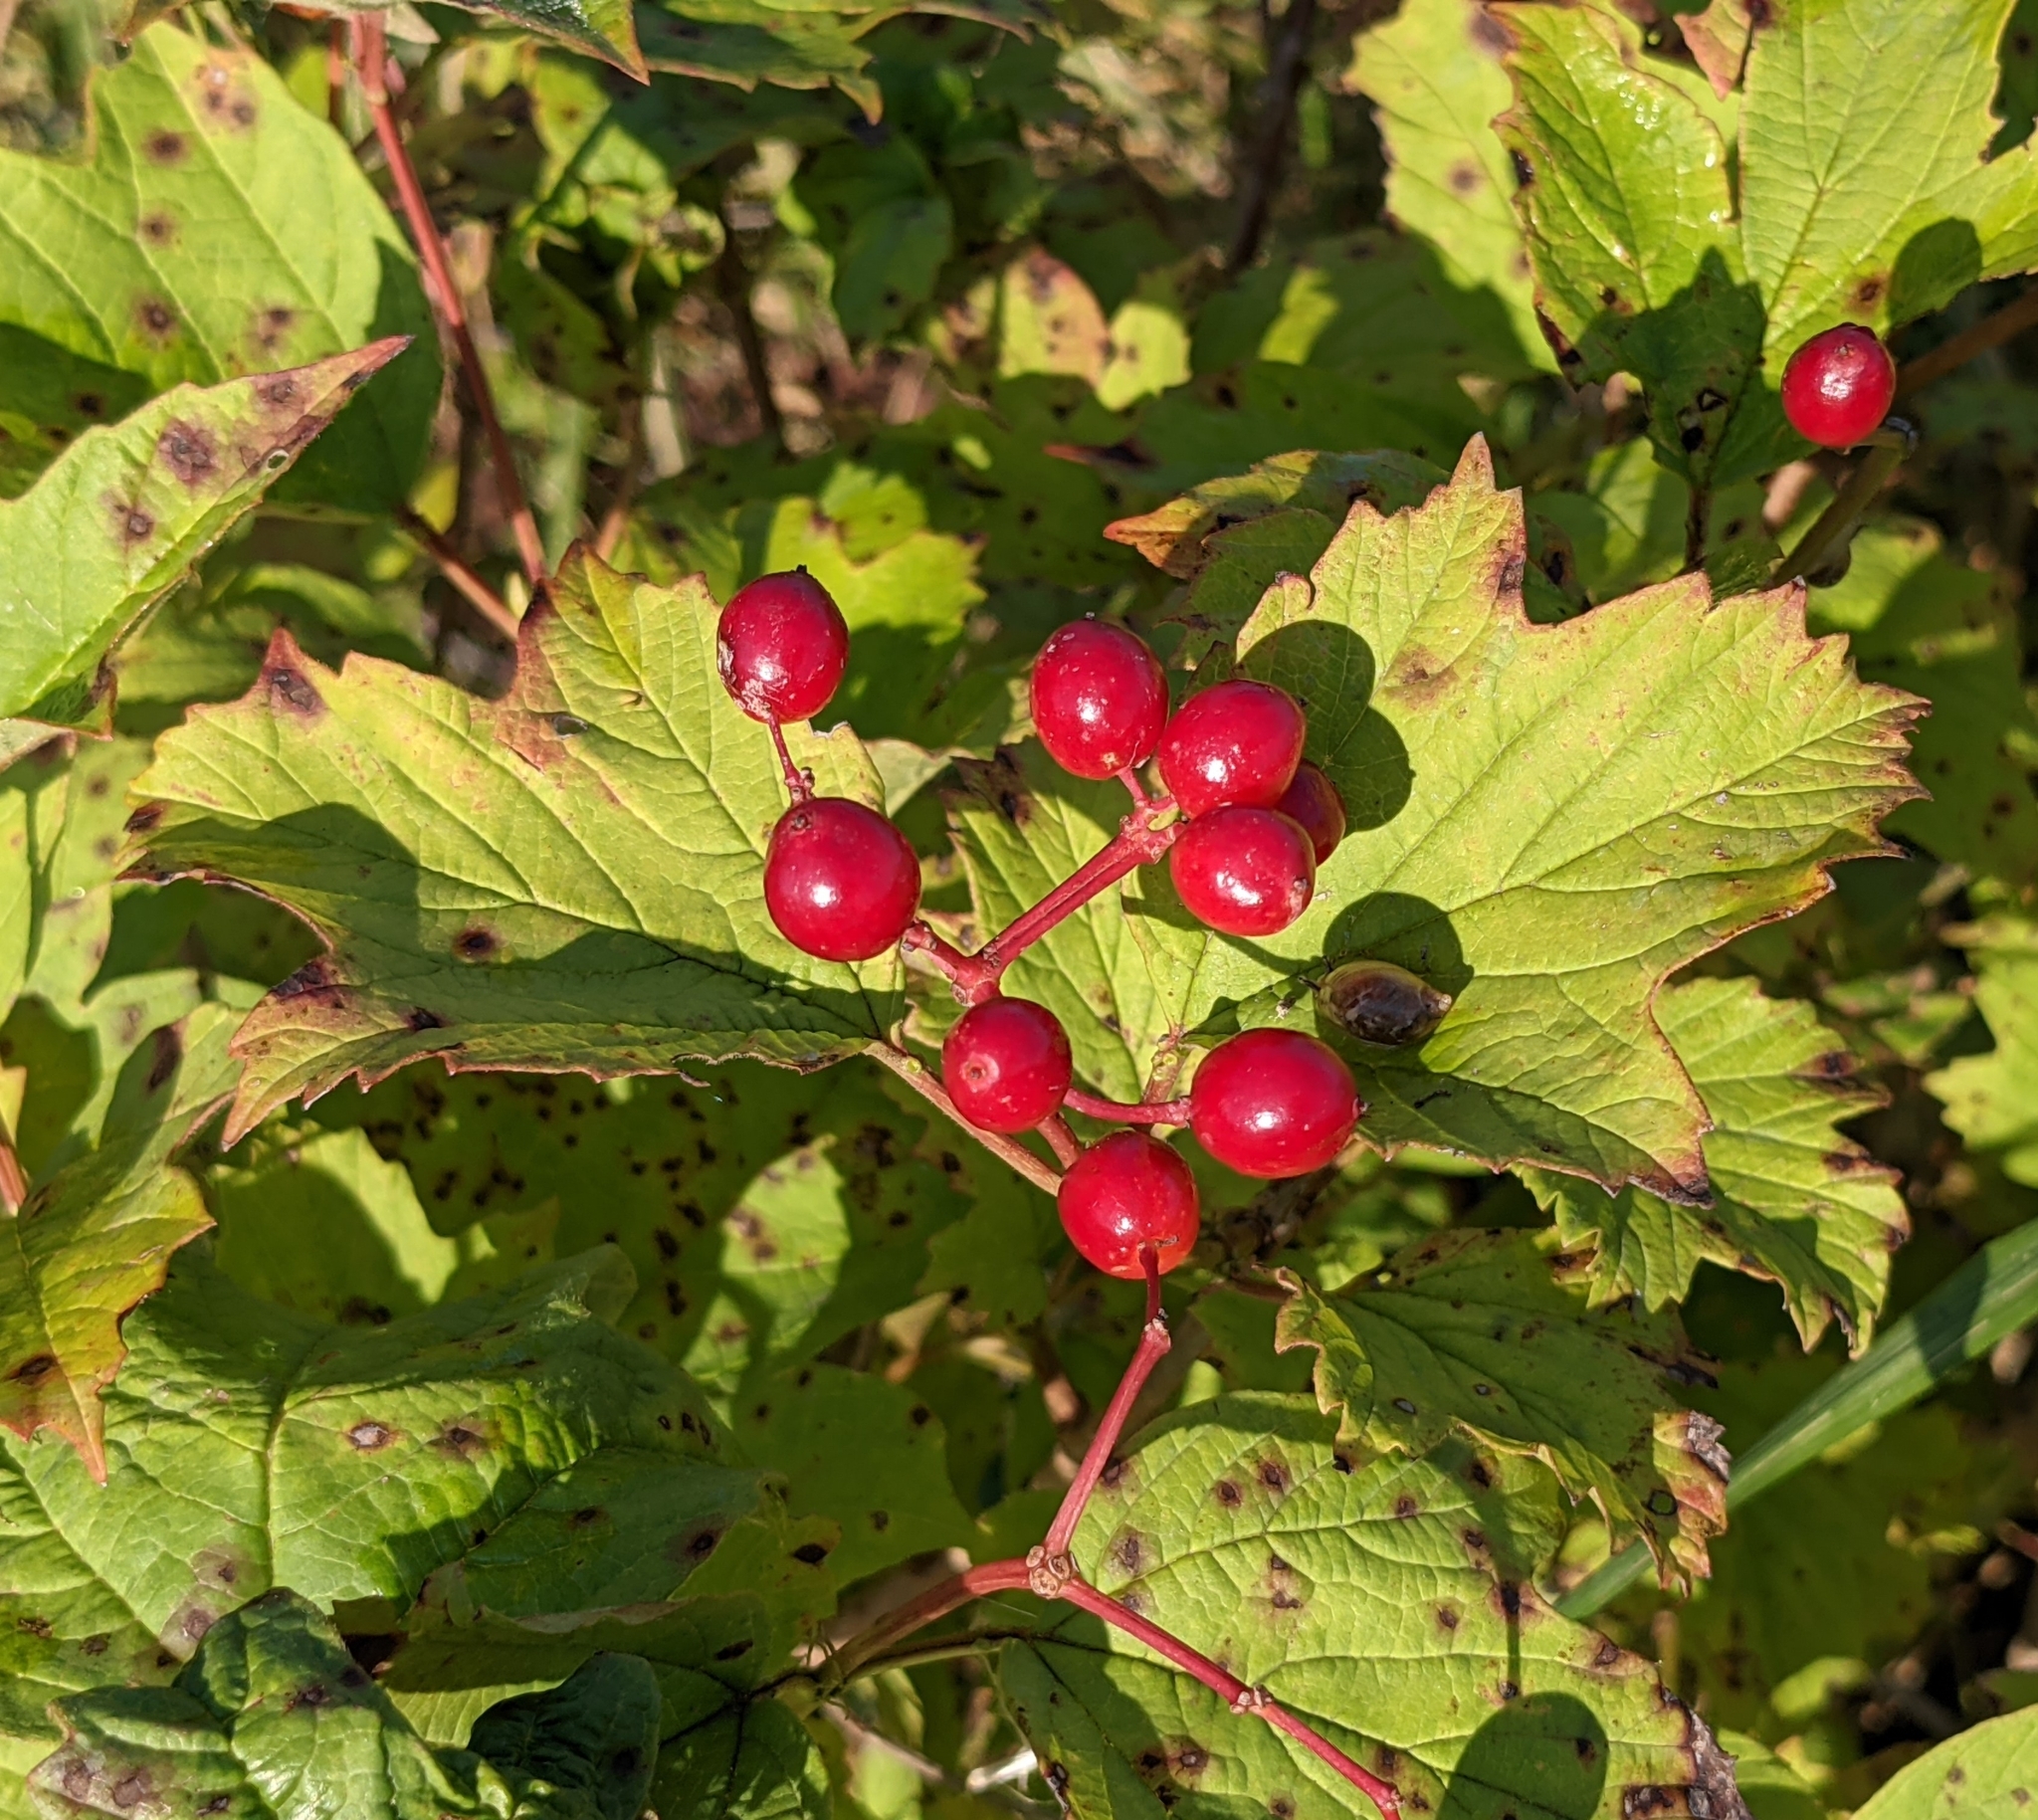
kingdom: Plantae
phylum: Tracheophyta
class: Magnoliopsida
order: Dipsacales
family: Viburnaceae
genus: Viburnum
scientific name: Viburnum opulus
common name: Guelder-rose
